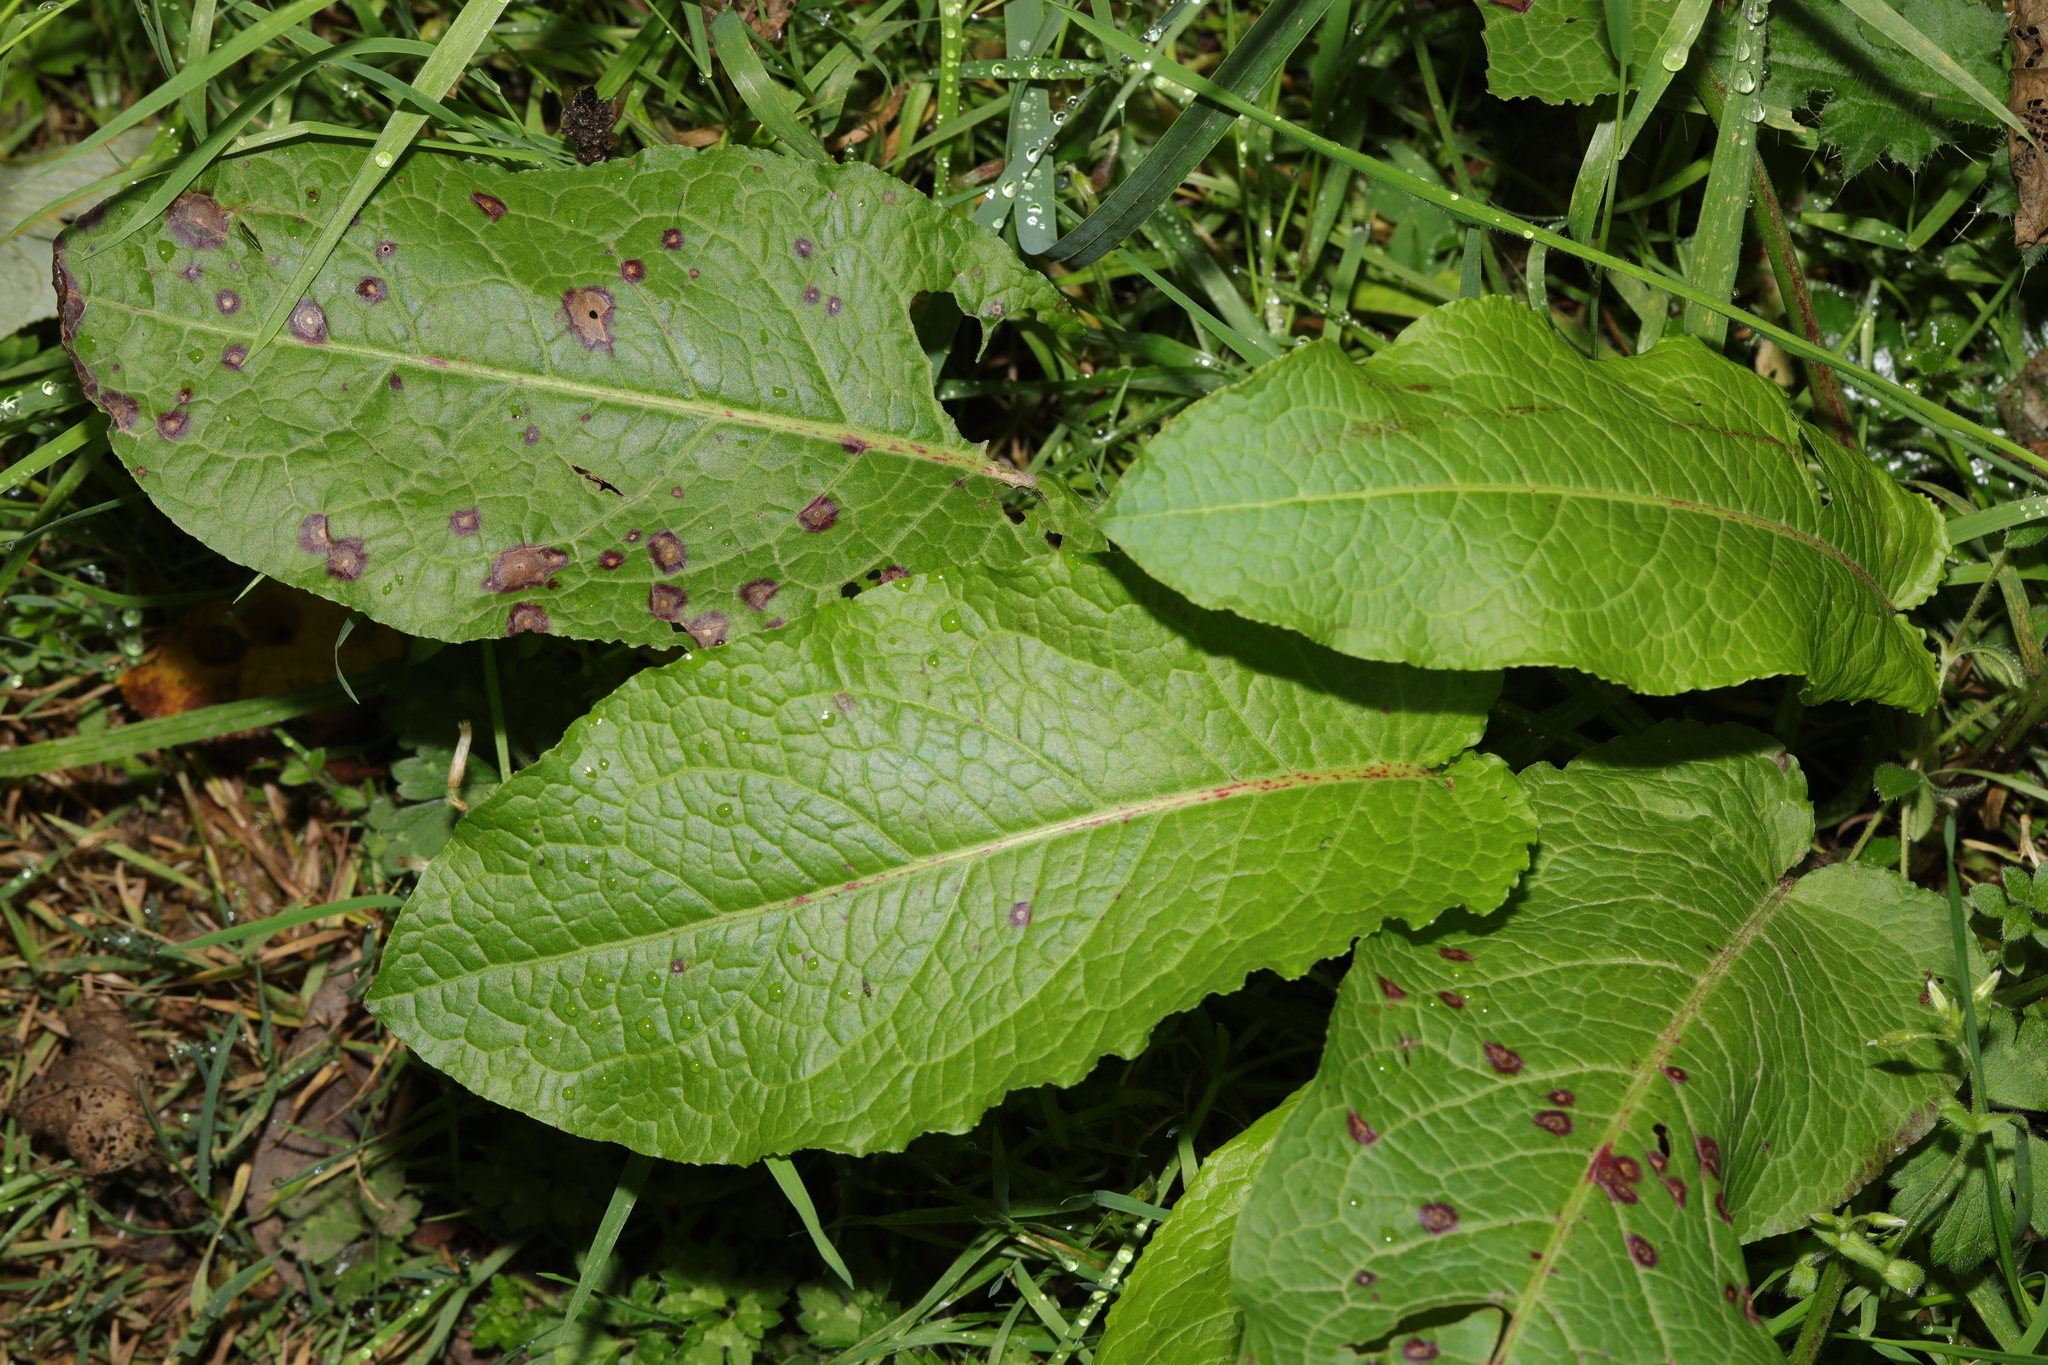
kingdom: Plantae
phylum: Tracheophyta
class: Magnoliopsida
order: Caryophyllales
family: Polygonaceae
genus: Rumex
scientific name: Rumex obtusifolius
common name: Bitter dock
